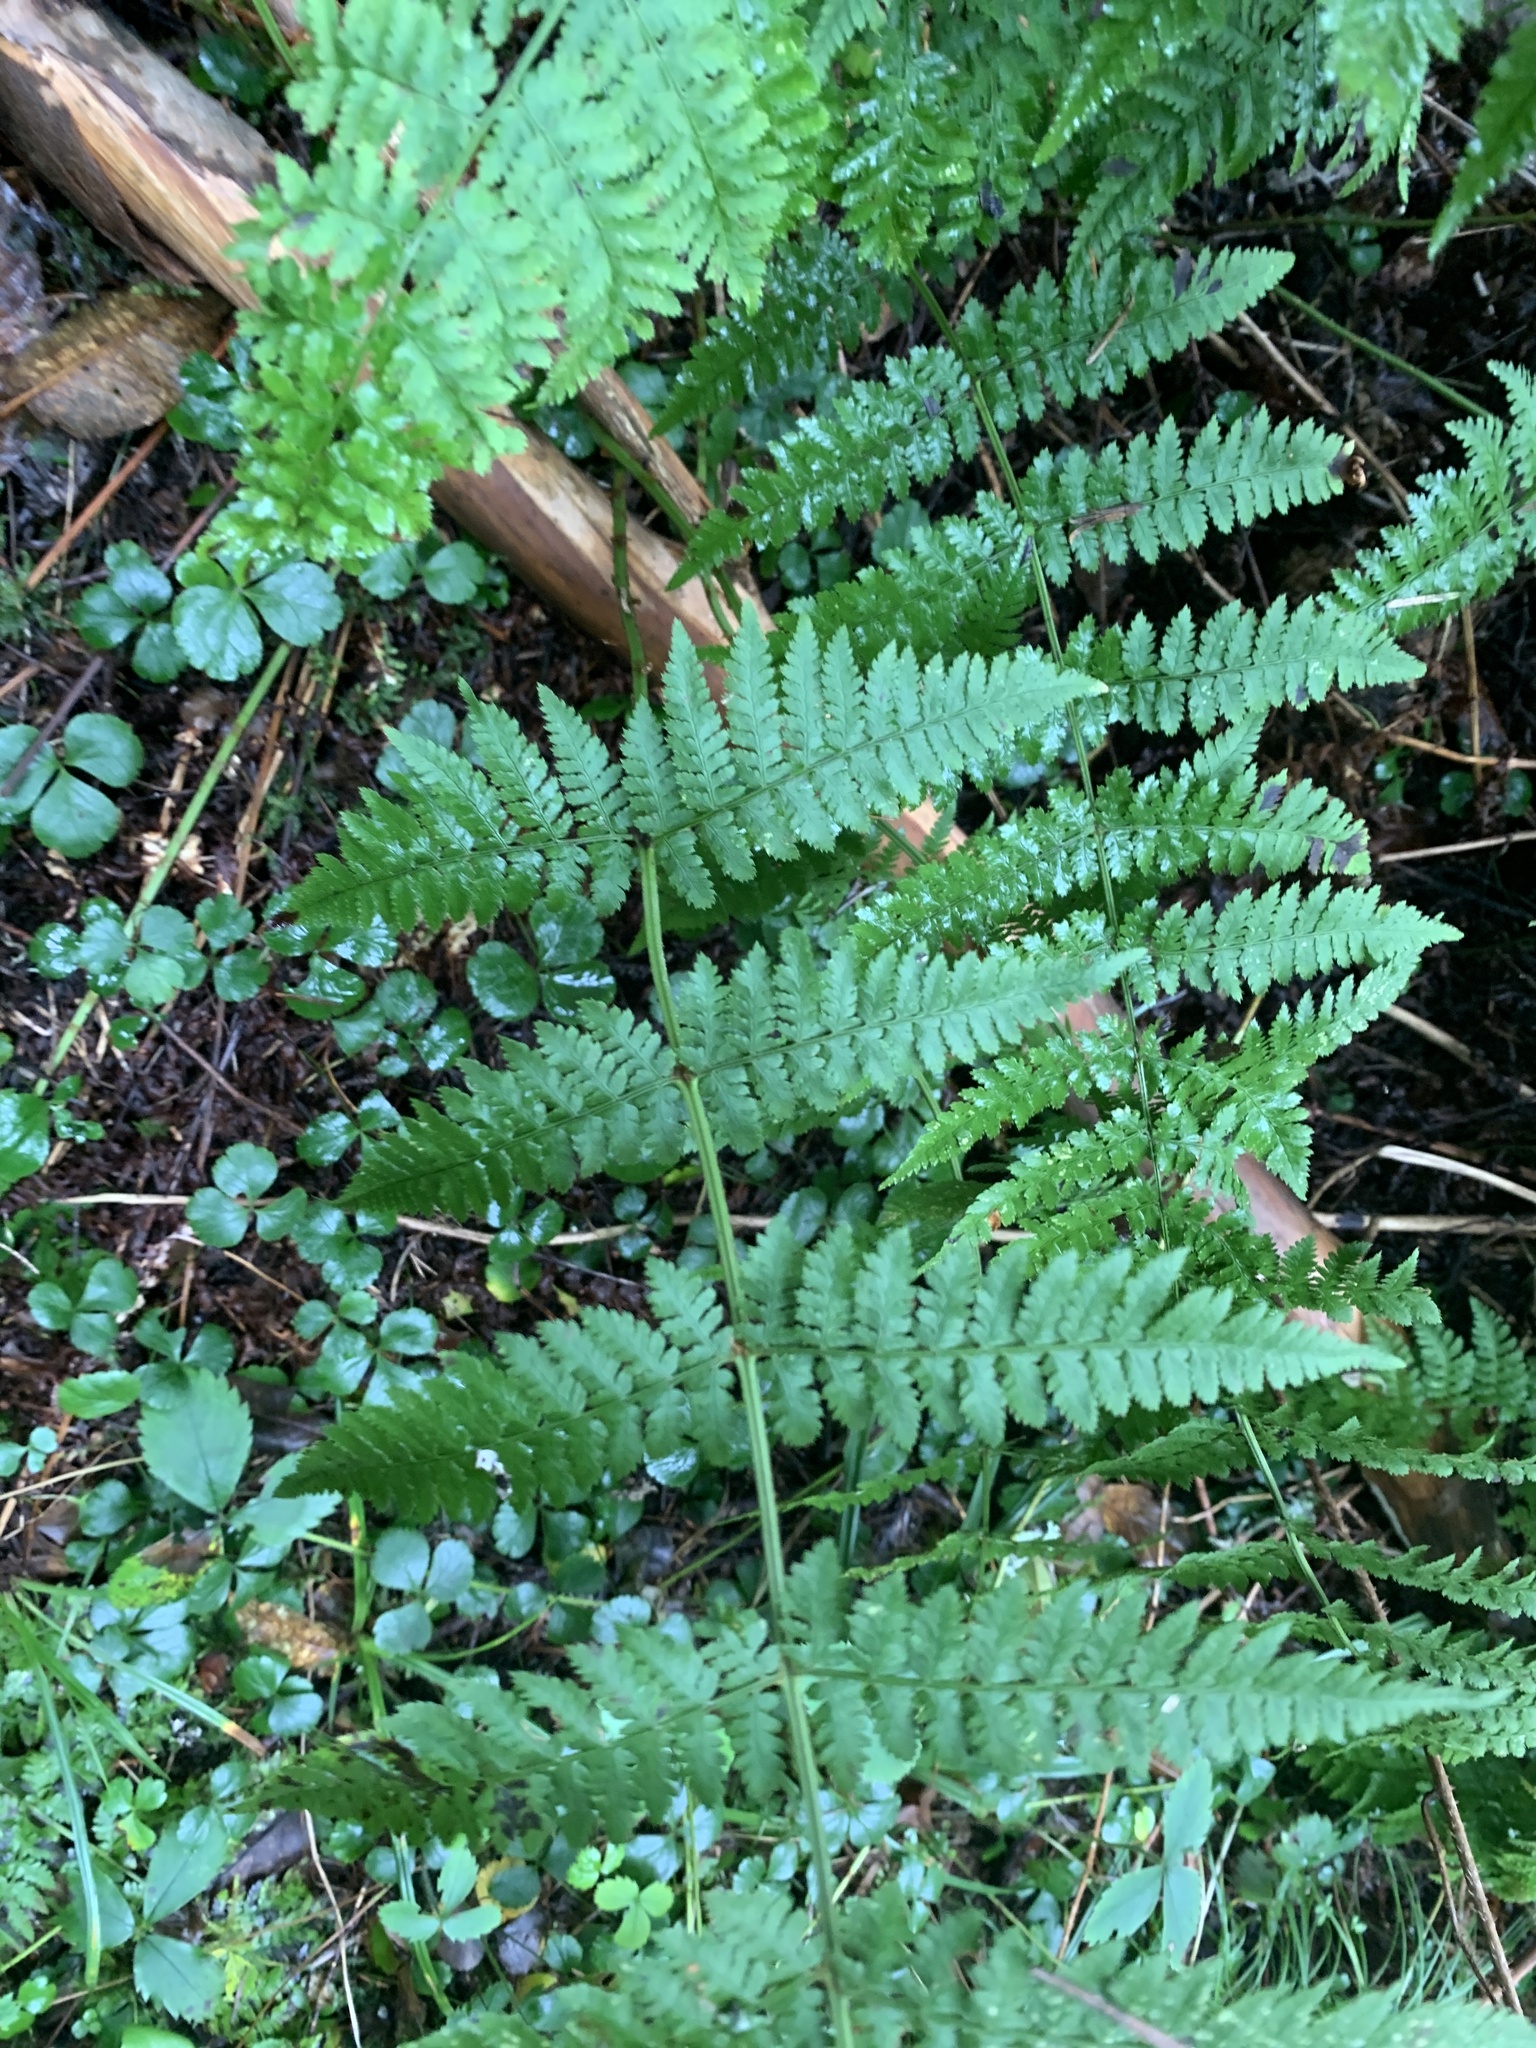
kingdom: Plantae
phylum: Tracheophyta
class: Polypodiopsida
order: Polypodiales
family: Dryopteridaceae
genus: Dryopteris
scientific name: Dryopteris intermedia
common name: Evergreen wood fern
